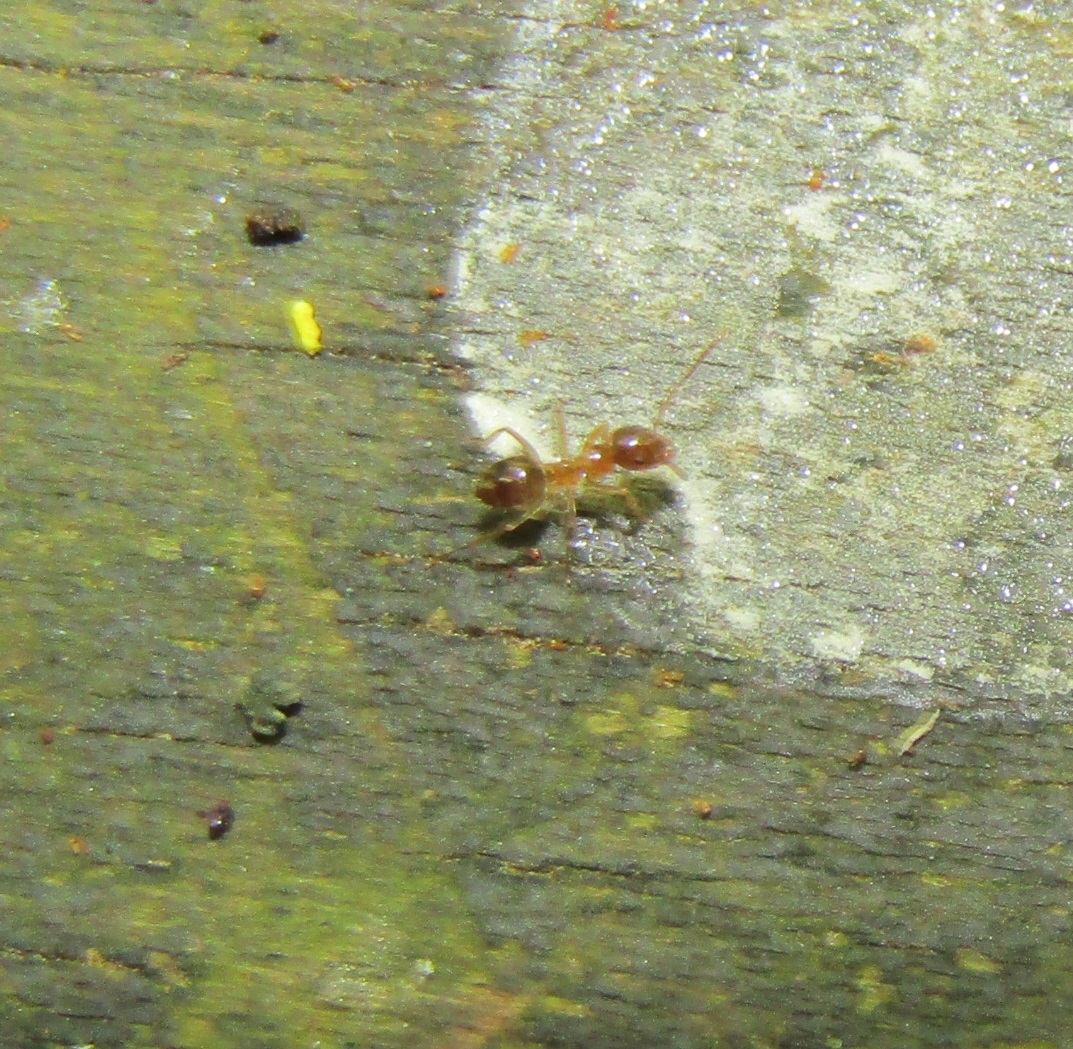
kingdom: Animalia
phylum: Arthropoda
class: Insecta
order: Hymenoptera
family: Formicidae
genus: Prolasius
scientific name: Prolasius advenus
